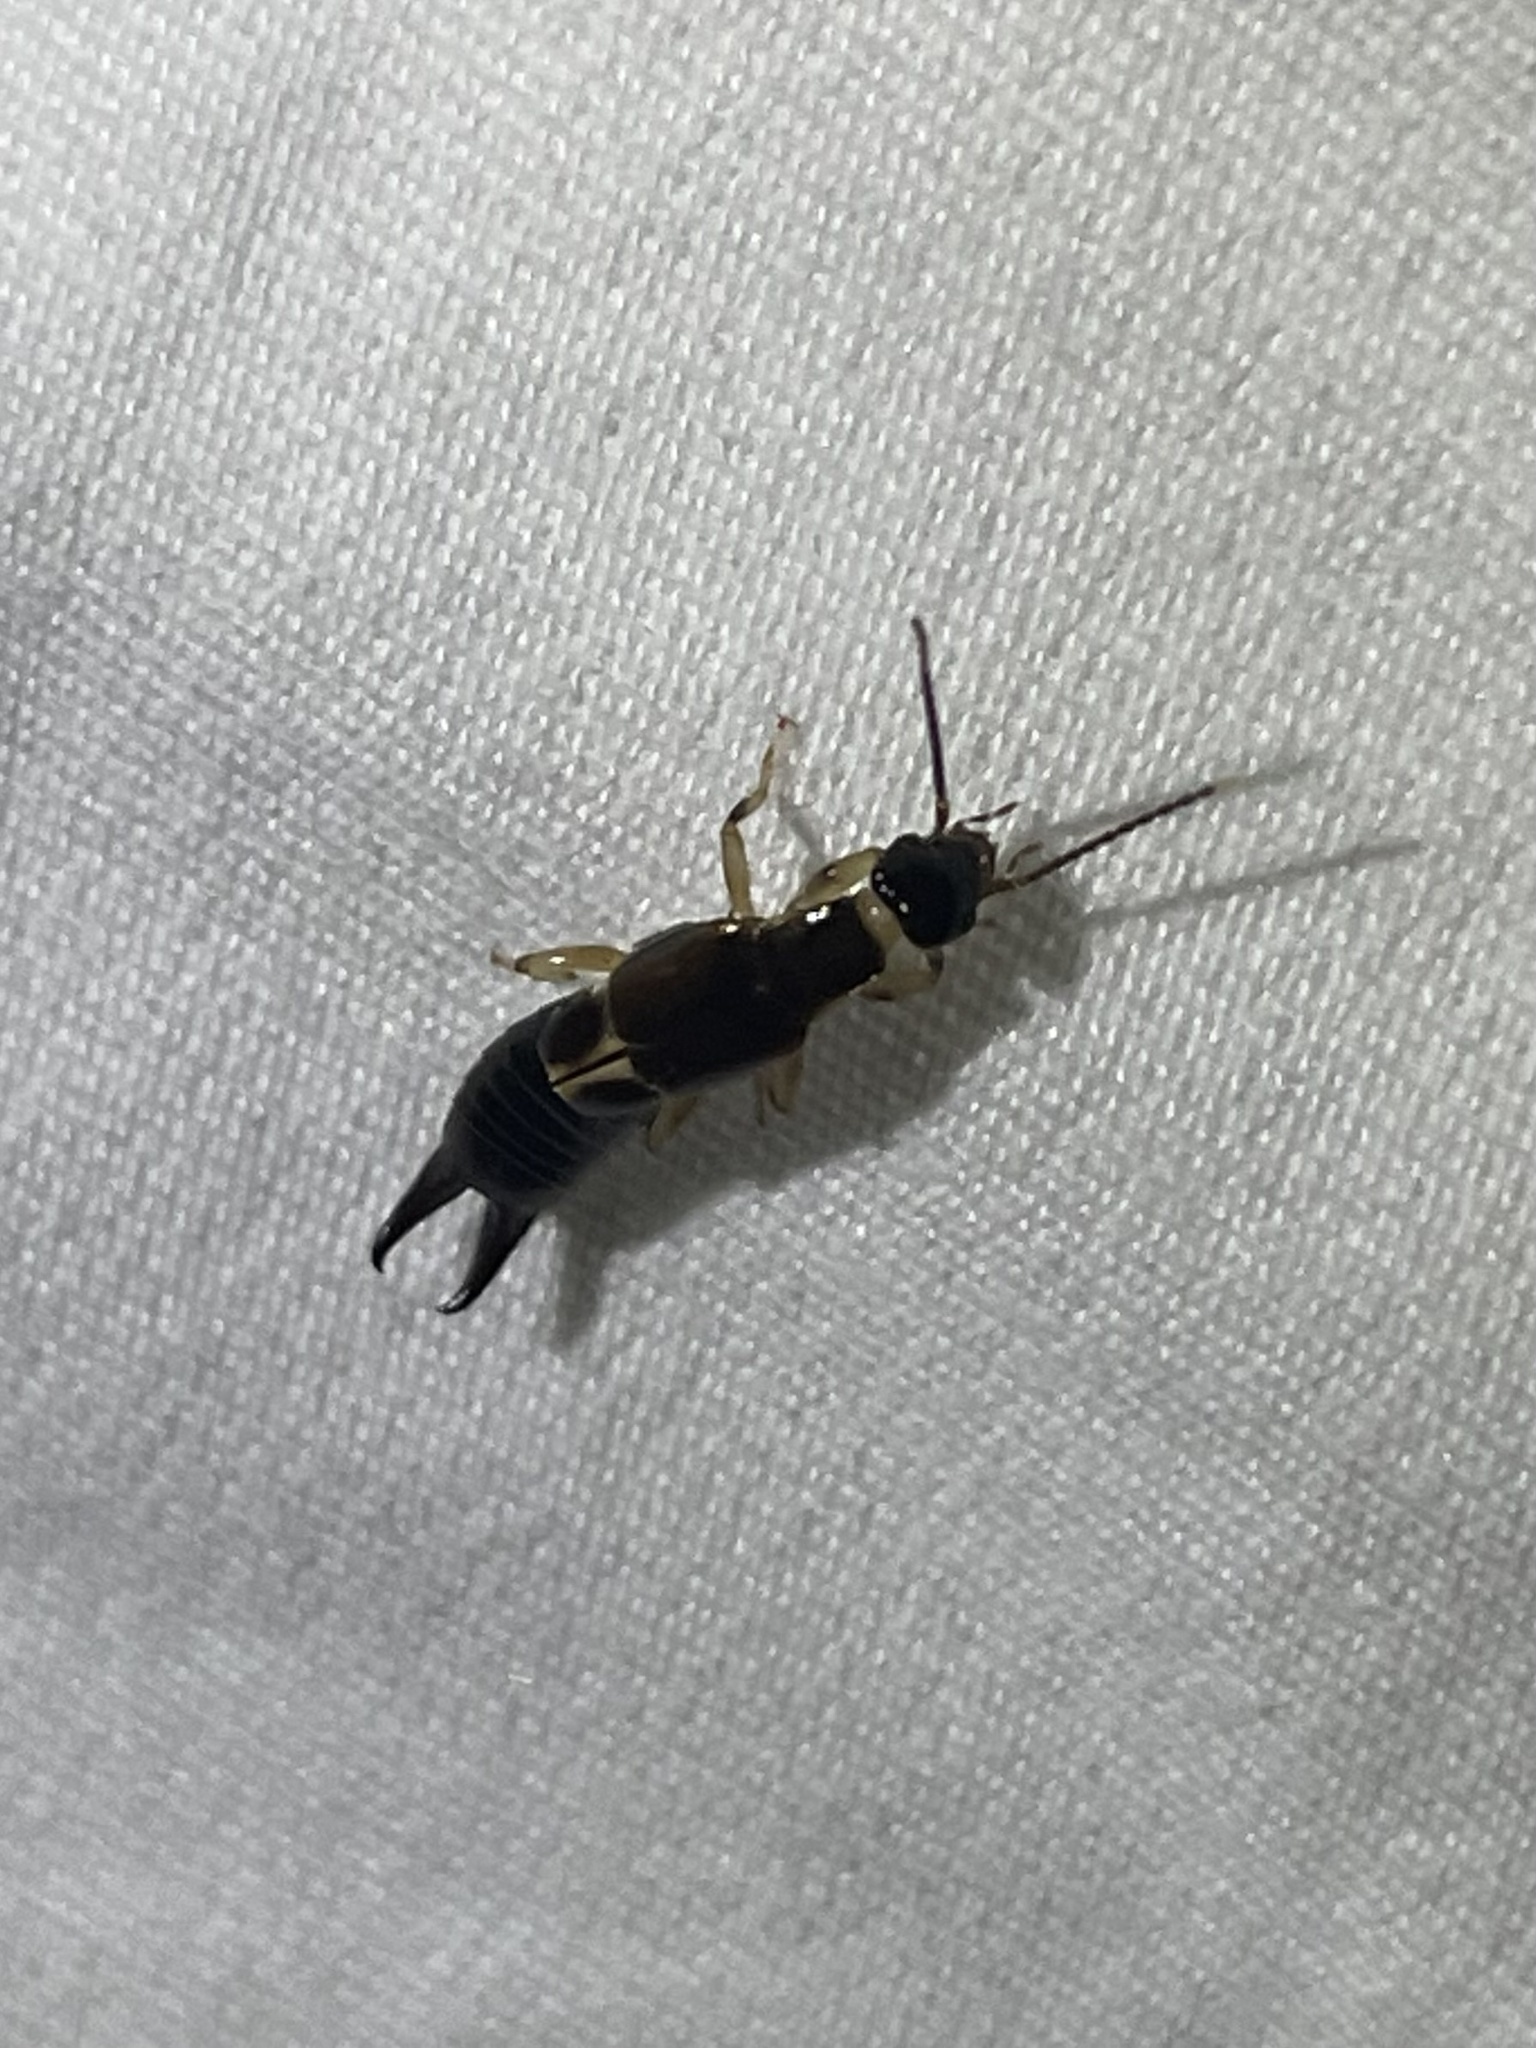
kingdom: Animalia
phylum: Arthropoda
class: Insecta
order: Dermaptera
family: Anisolabididae
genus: Euborellia
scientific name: Euborellia cincticollis
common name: African earwig
